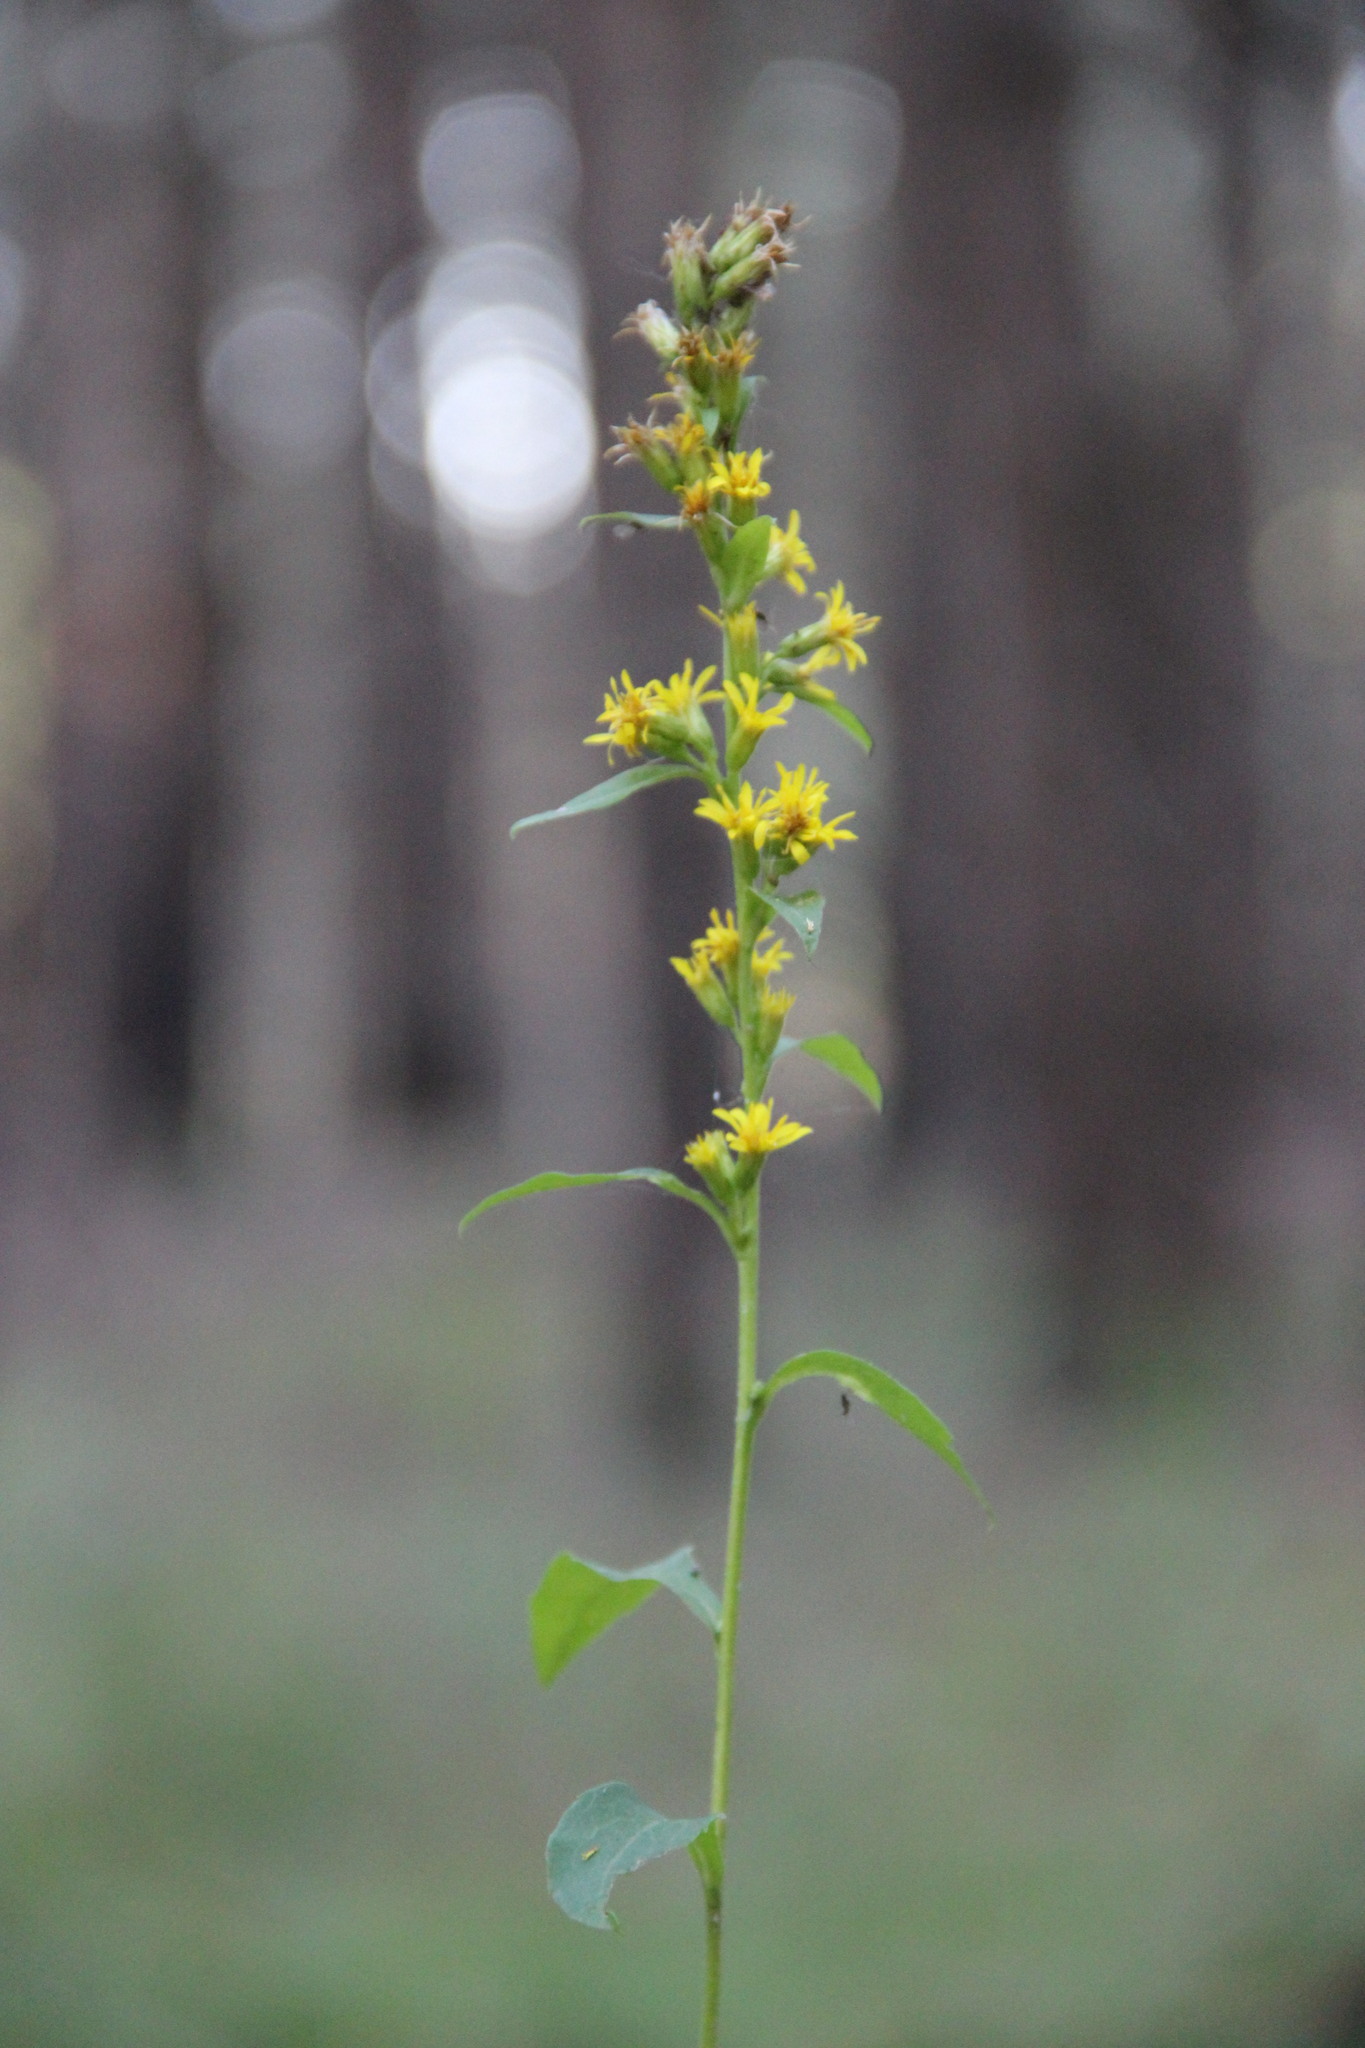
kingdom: Plantae
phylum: Tracheophyta
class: Magnoliopsida
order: Asterales
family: Asteraceae
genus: Solidago
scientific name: Solidago virgaurea
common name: Goldenrod
